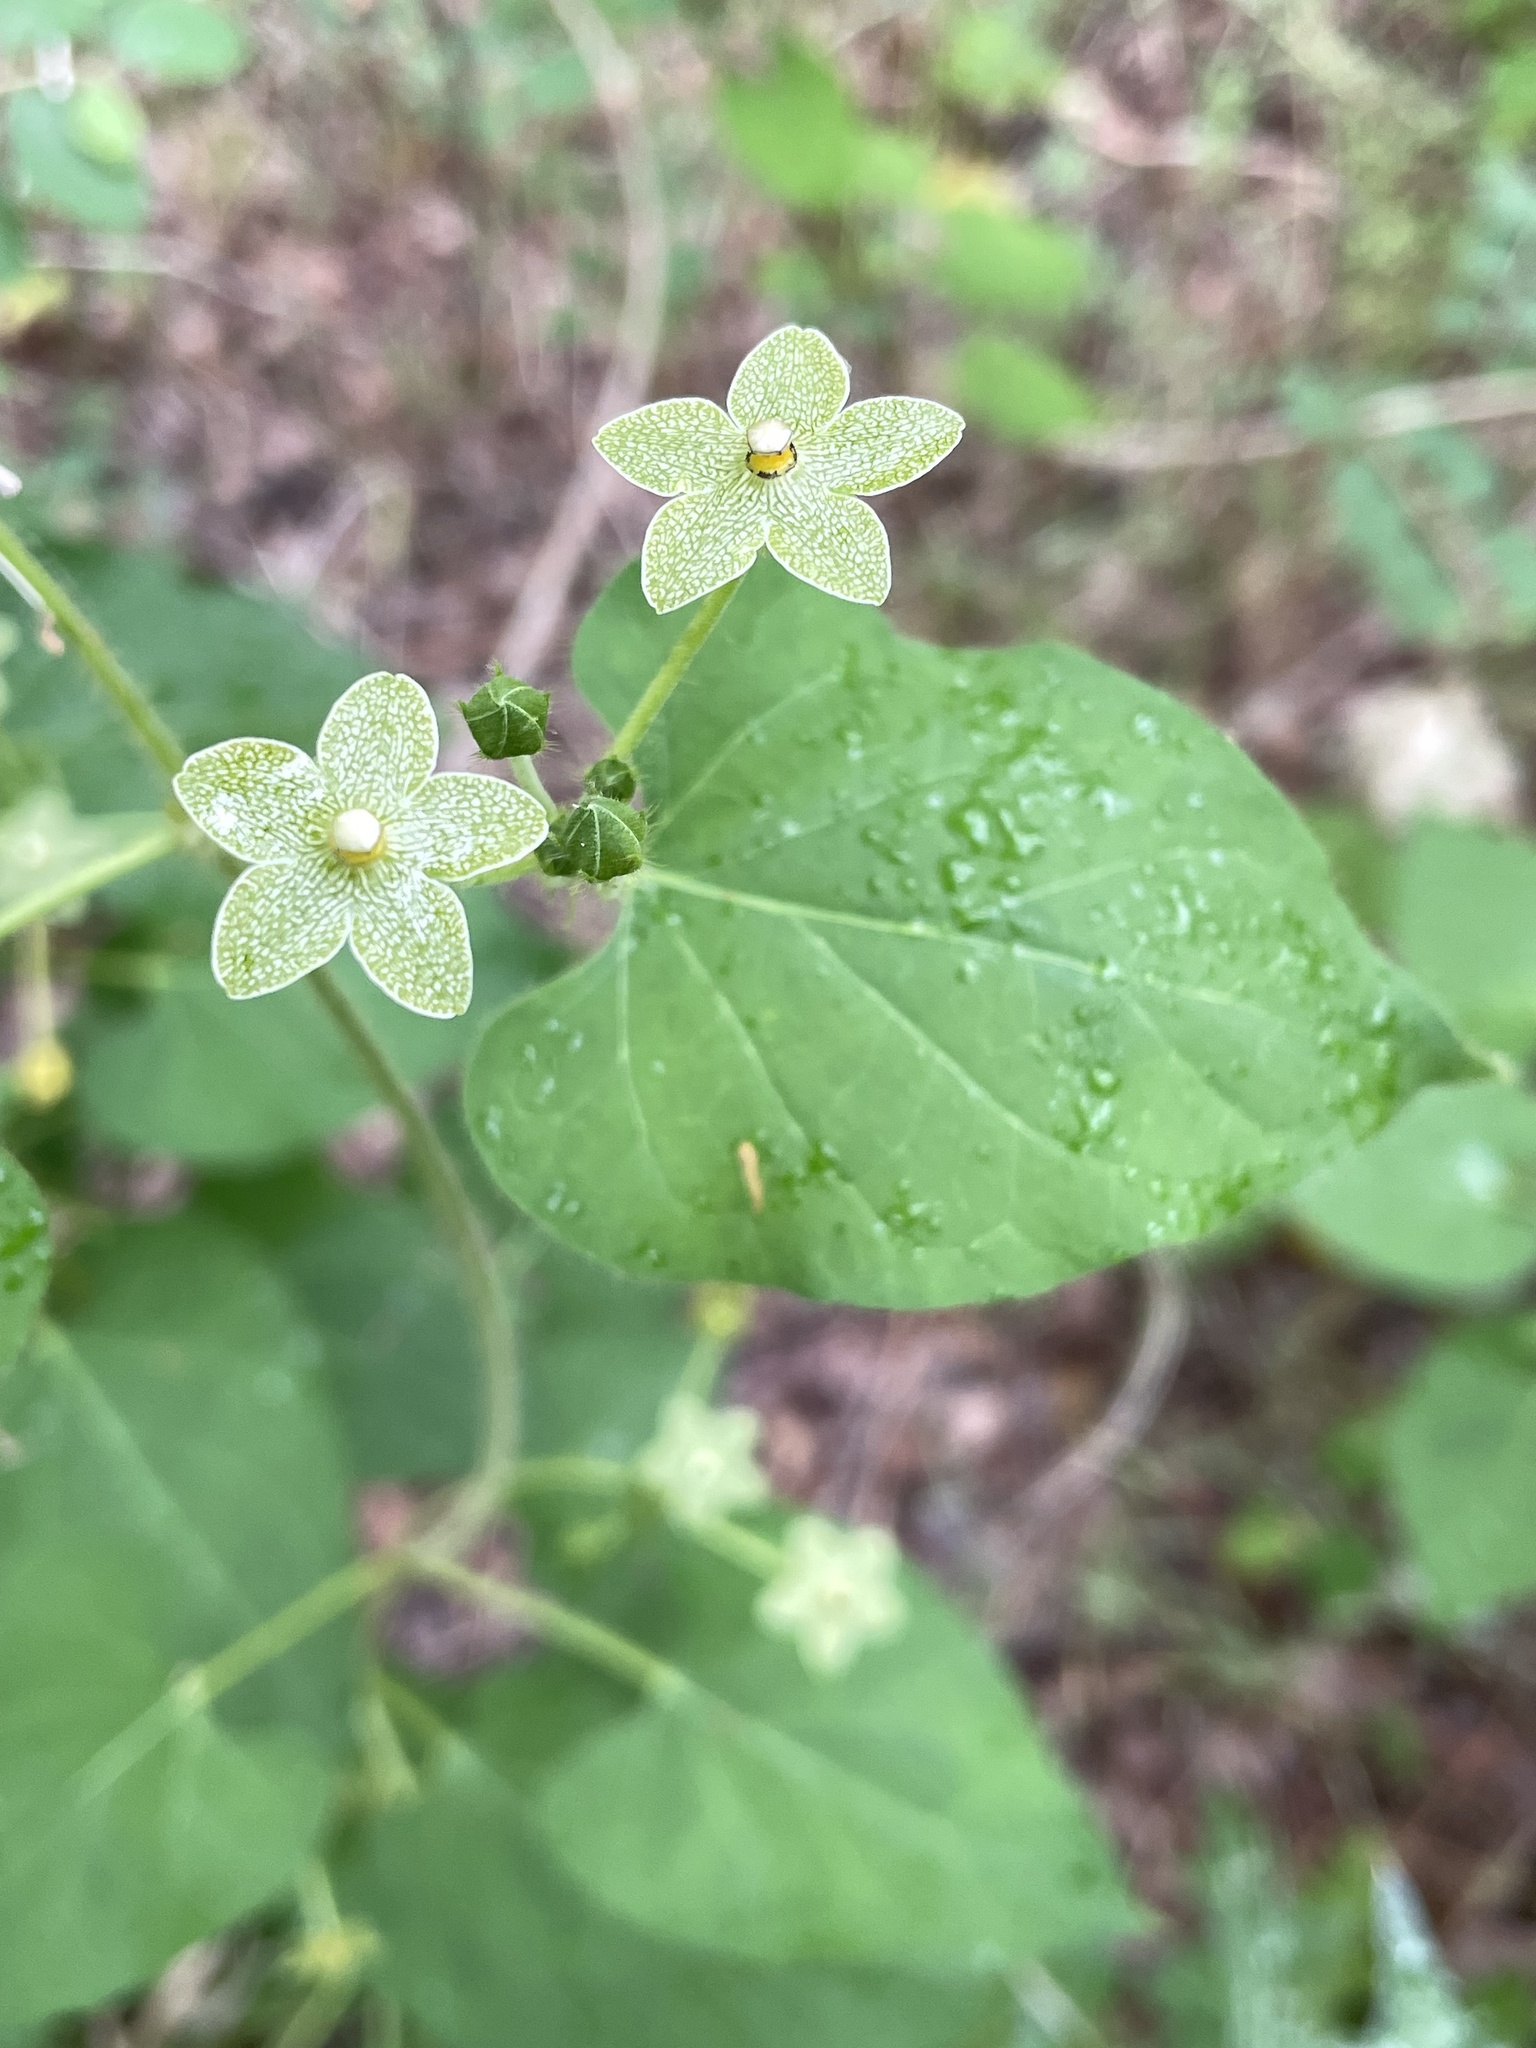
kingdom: Plantae
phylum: Tracheophyta
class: Magnoliopsida
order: Gentianales
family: Apocynaceae
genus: Dictyanthus
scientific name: Dictyanthus reticulatus
